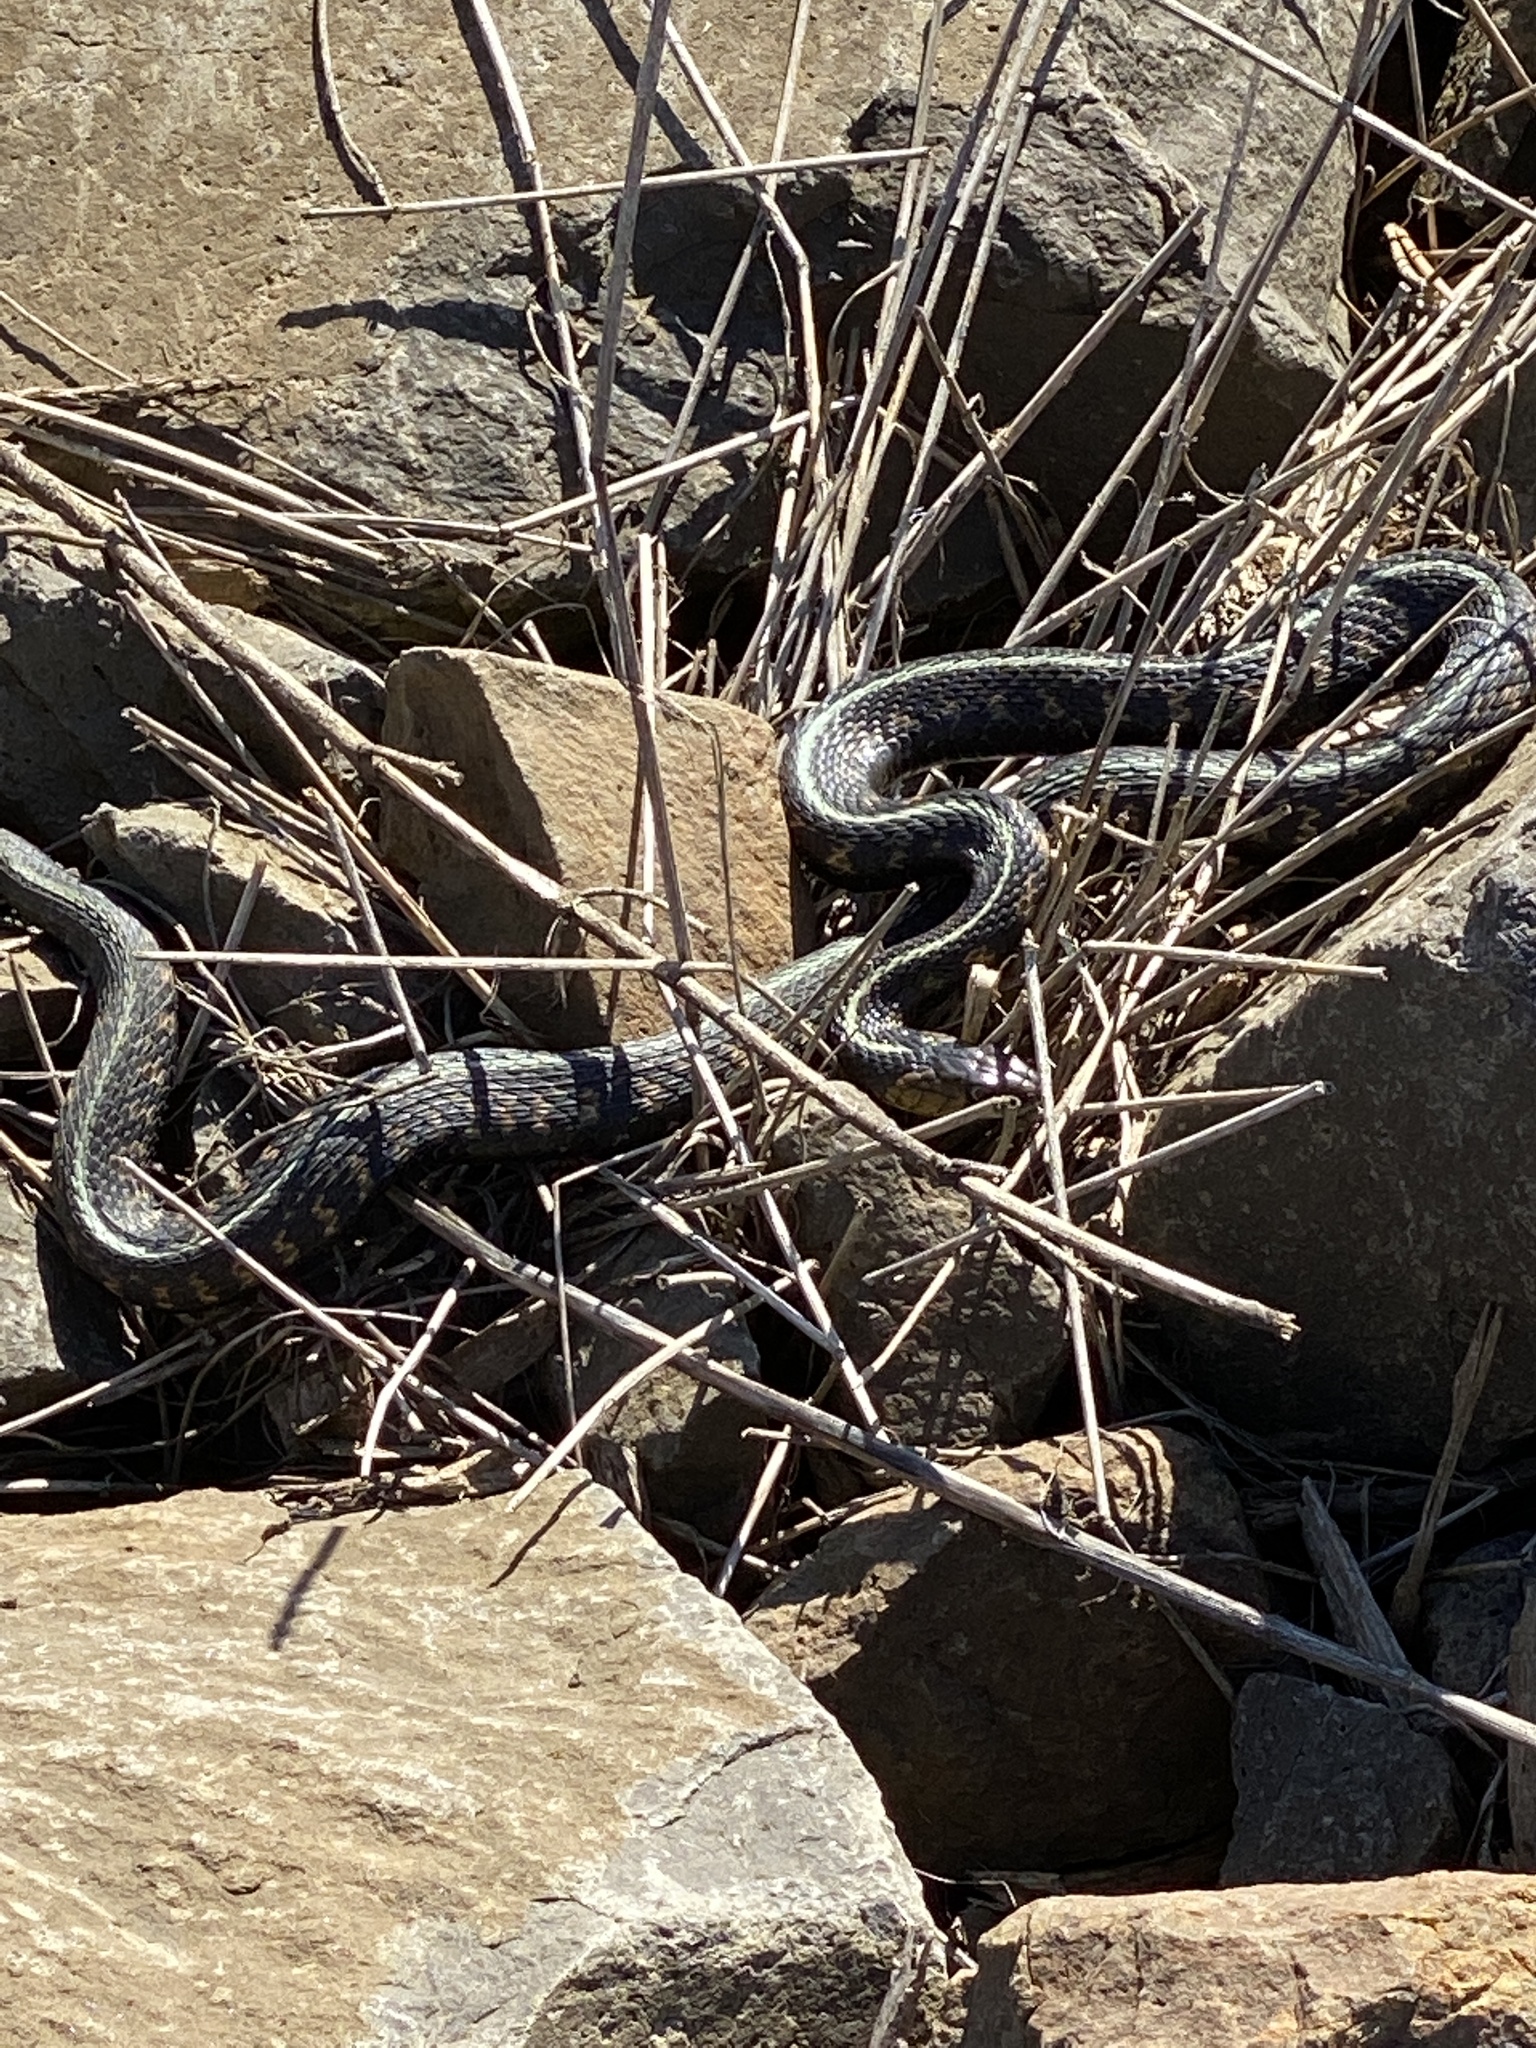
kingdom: Animalia
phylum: Chordata
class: Squamata
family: Colubridae
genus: Thamnophis
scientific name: Thamnophis sirtalis
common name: Common garter snake
